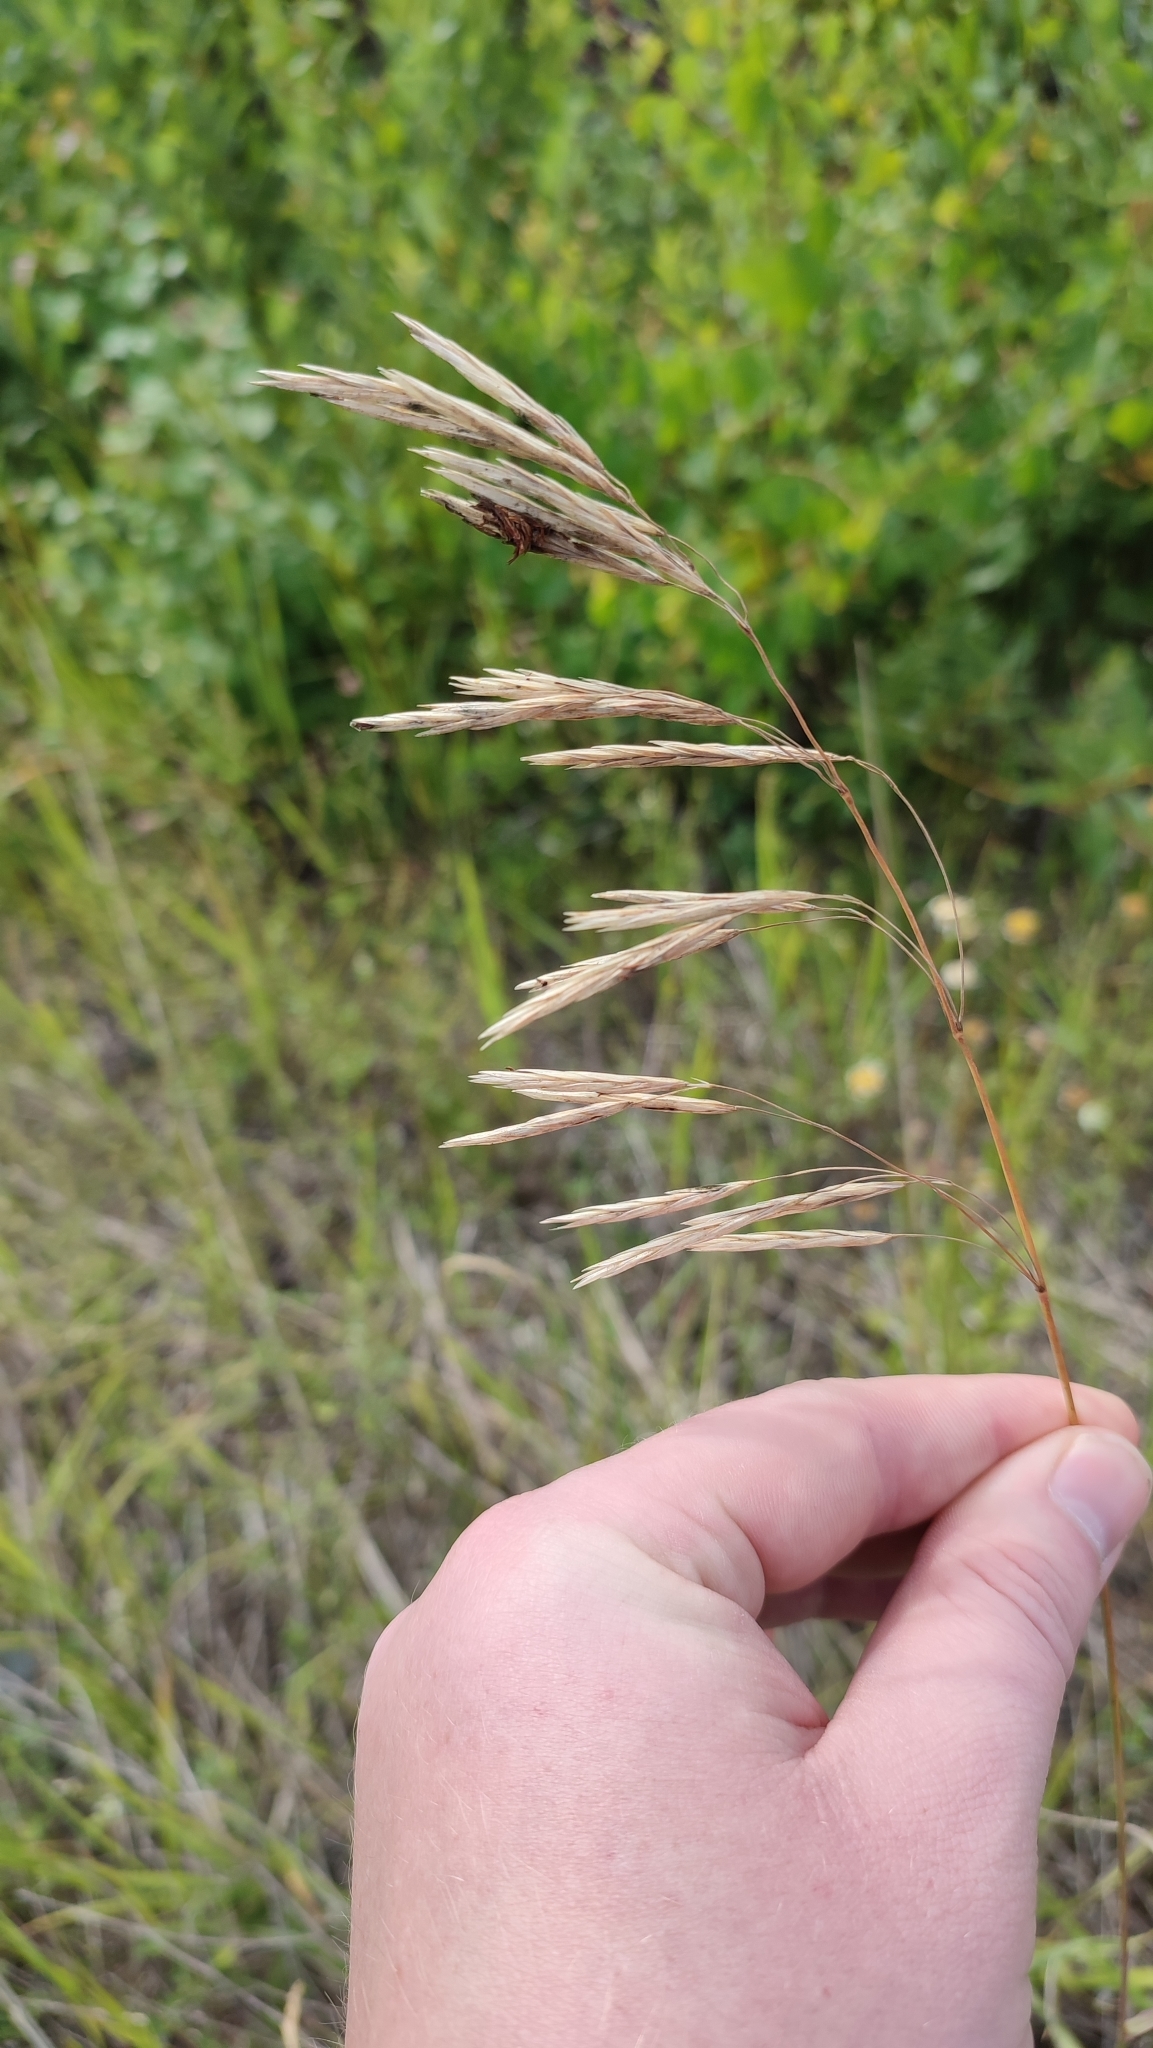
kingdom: Plantae
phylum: Tracheophyta
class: Liliopsida
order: Poales
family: Poaceae
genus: Bromus
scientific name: Bromus inermis
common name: Smooth brome
